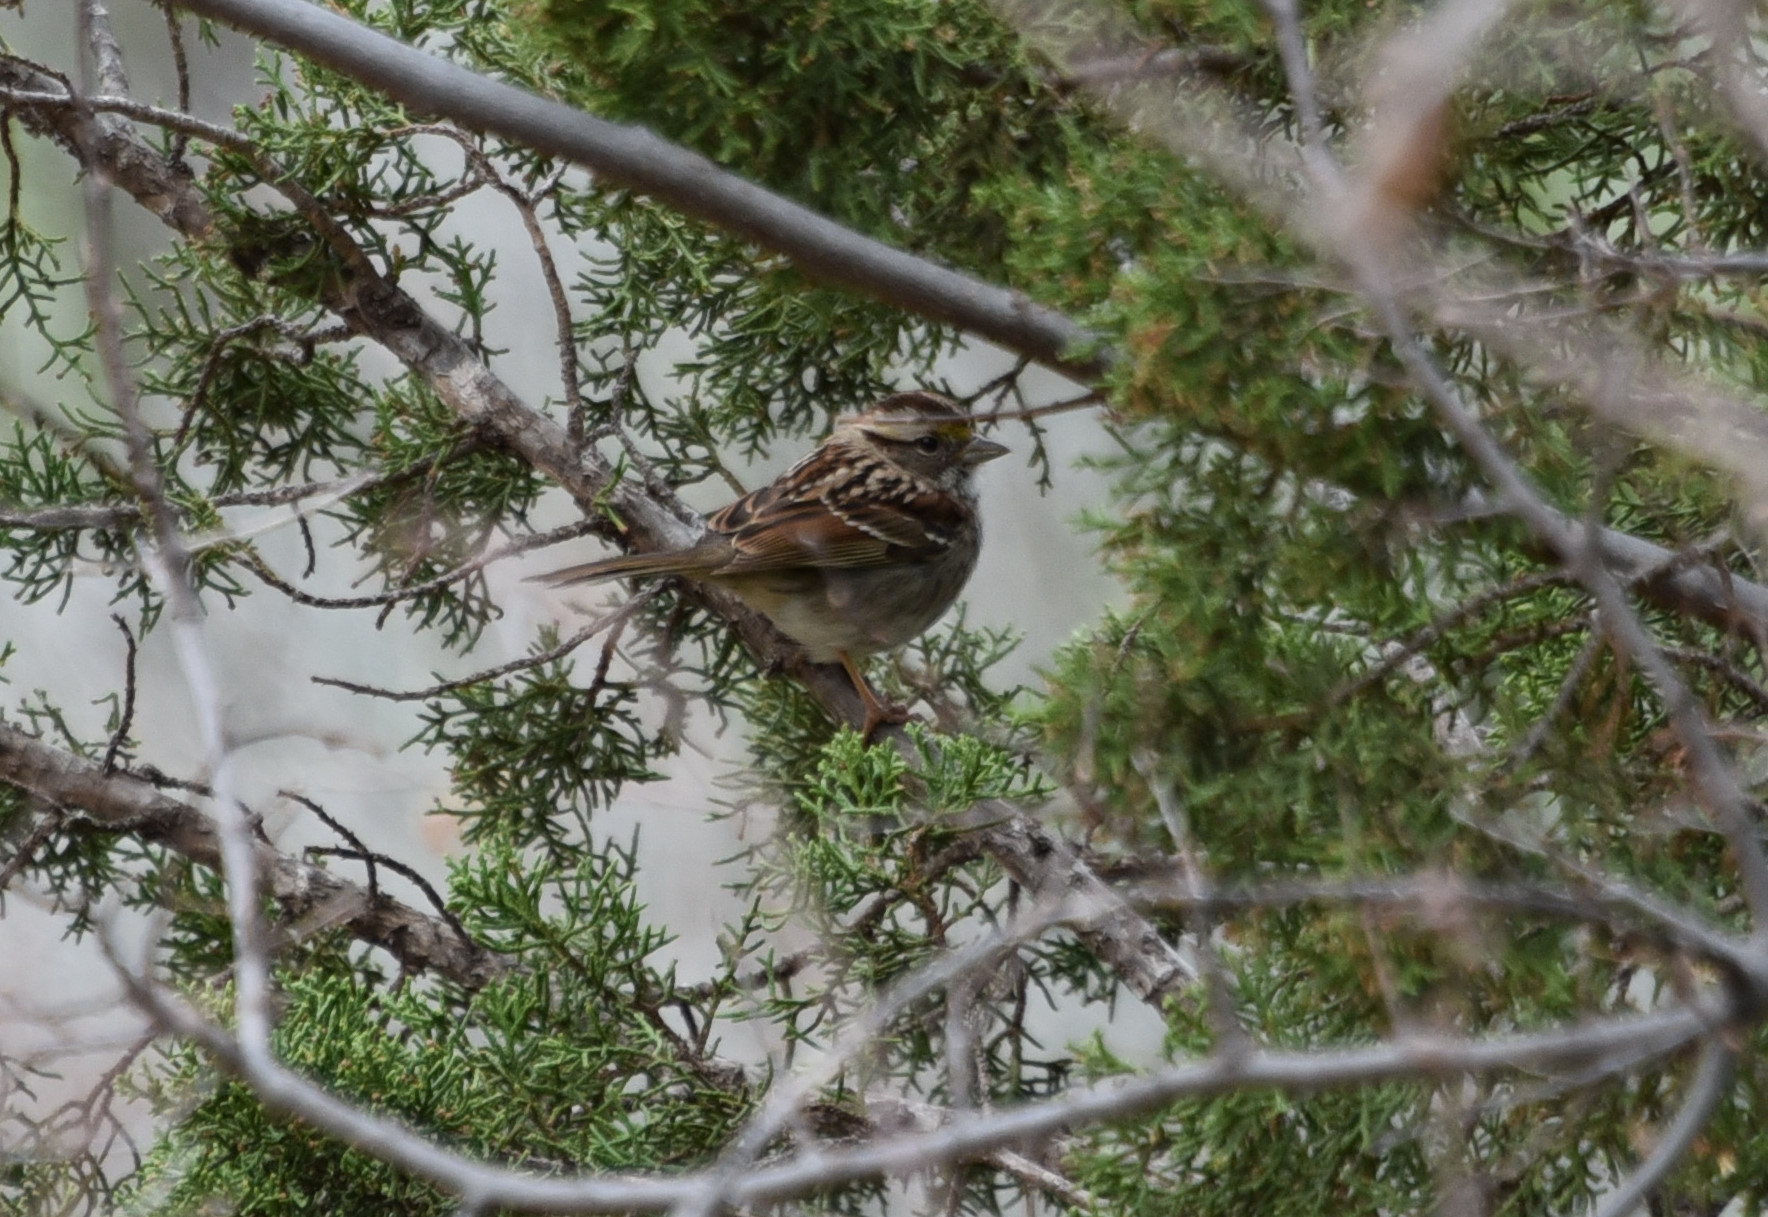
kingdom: Animalia
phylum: Chordata
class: Aves
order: Passeriformes
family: Passerellidae
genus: Zonotrichia
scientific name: Zonotrichia albicollis
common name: White-throated sparrow
